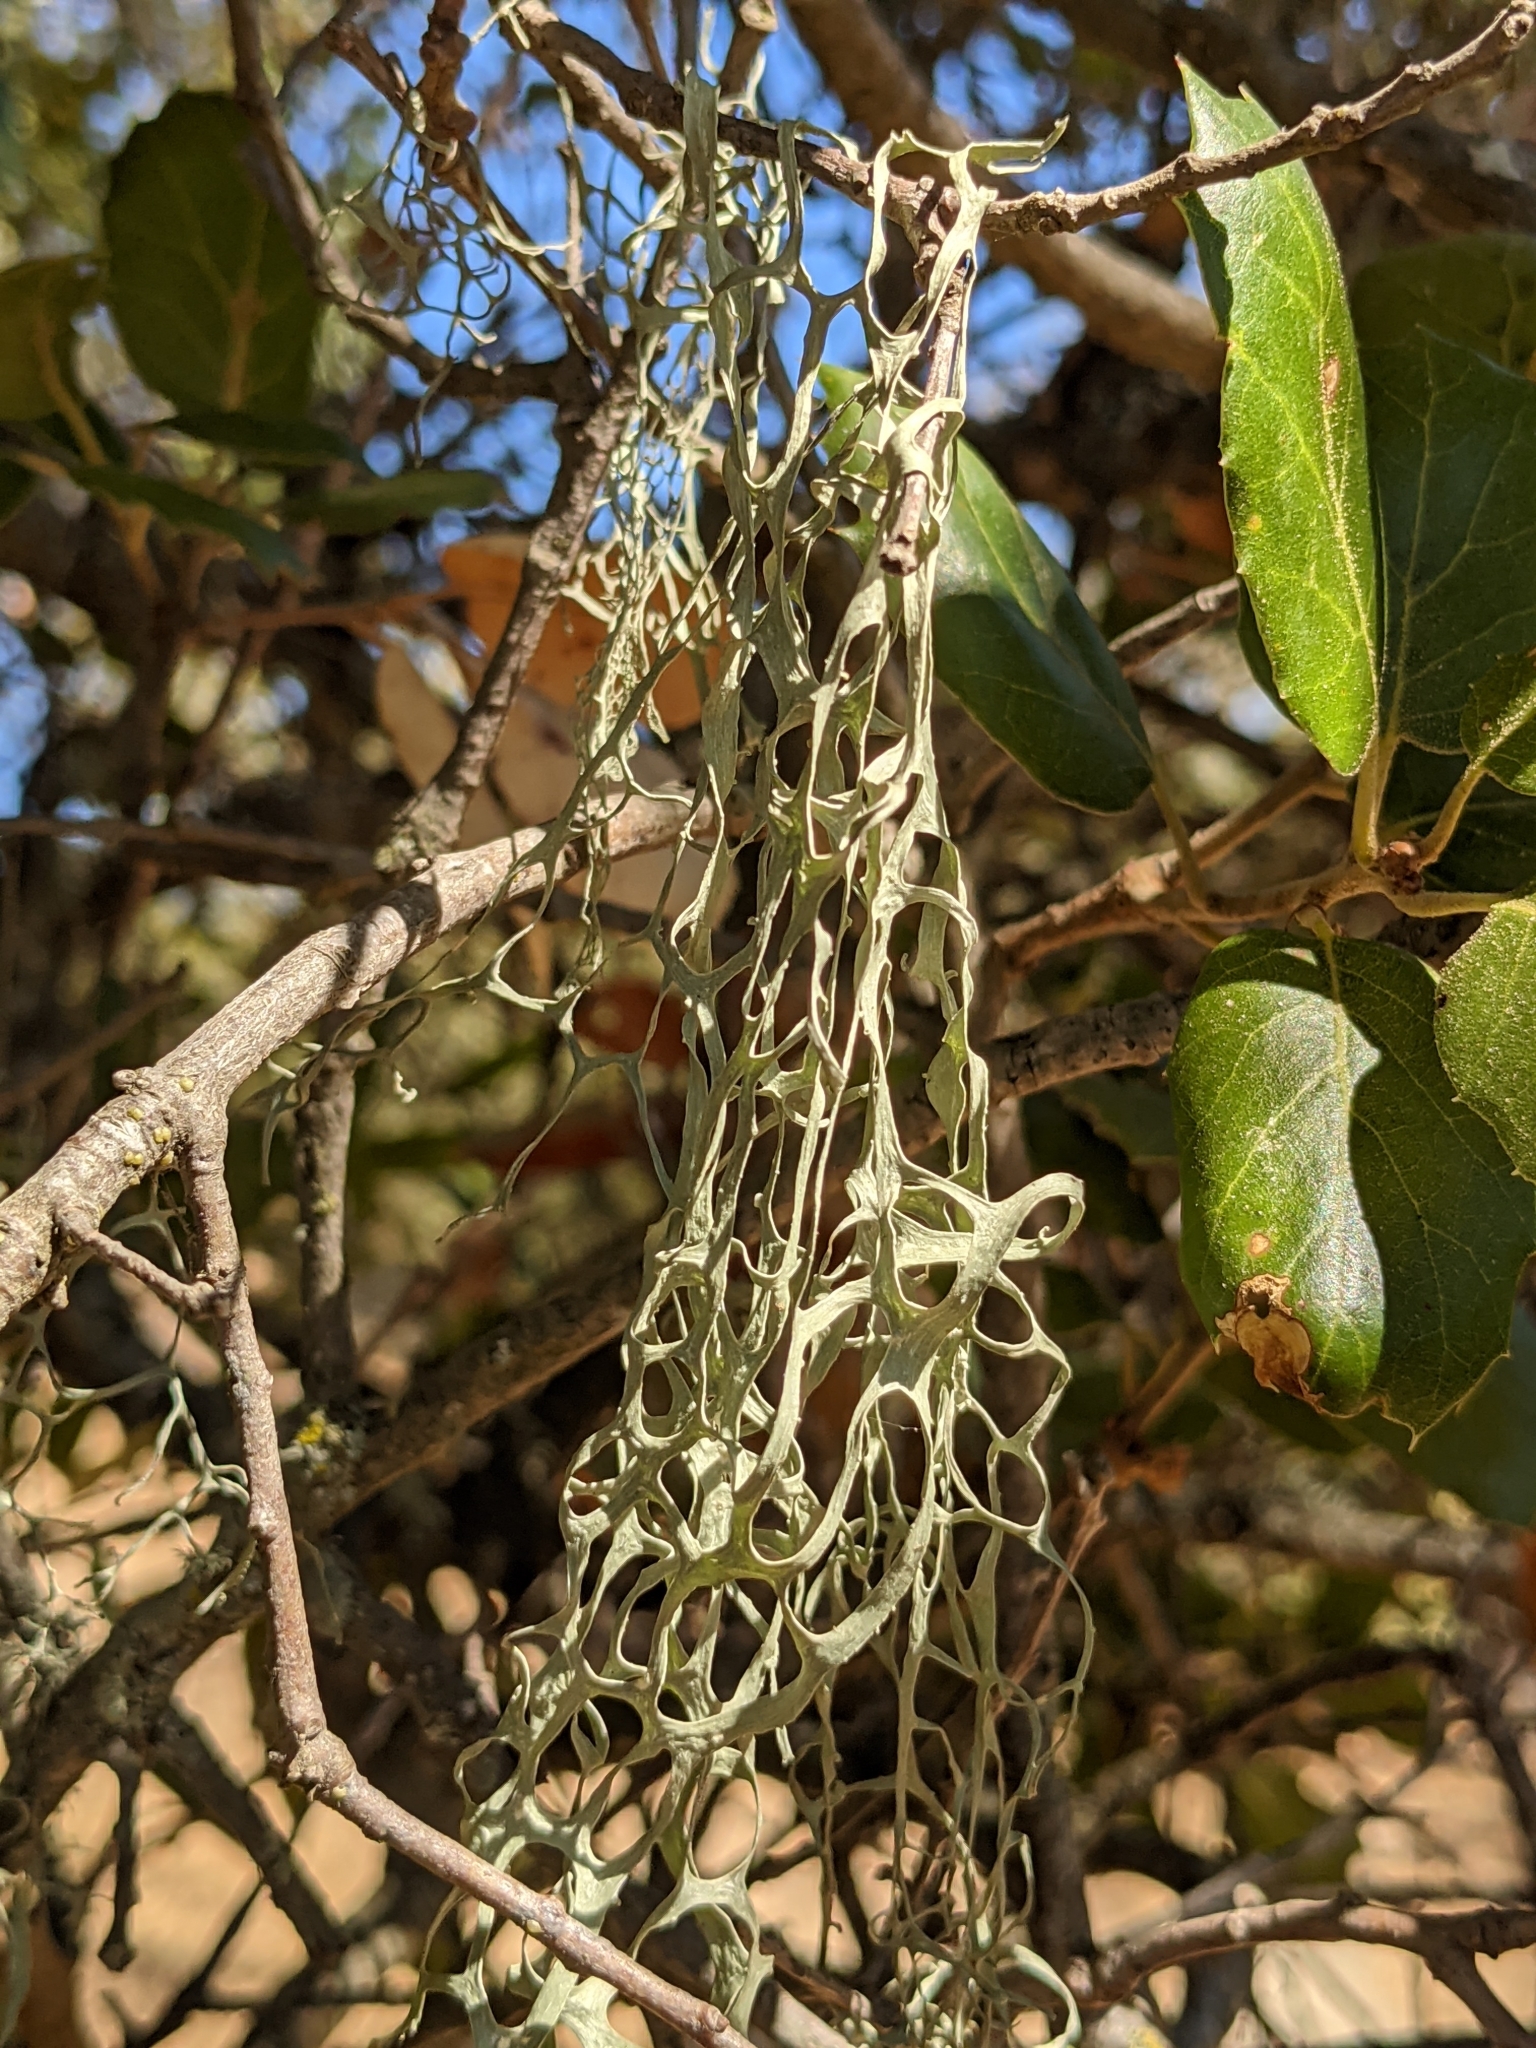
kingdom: Fungi
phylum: Ascomycota
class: Lecanoromycetes
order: Lecanorales
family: Ramalinaceae
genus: Ramalina
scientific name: Ramalina menziesii
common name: Lace lichen
